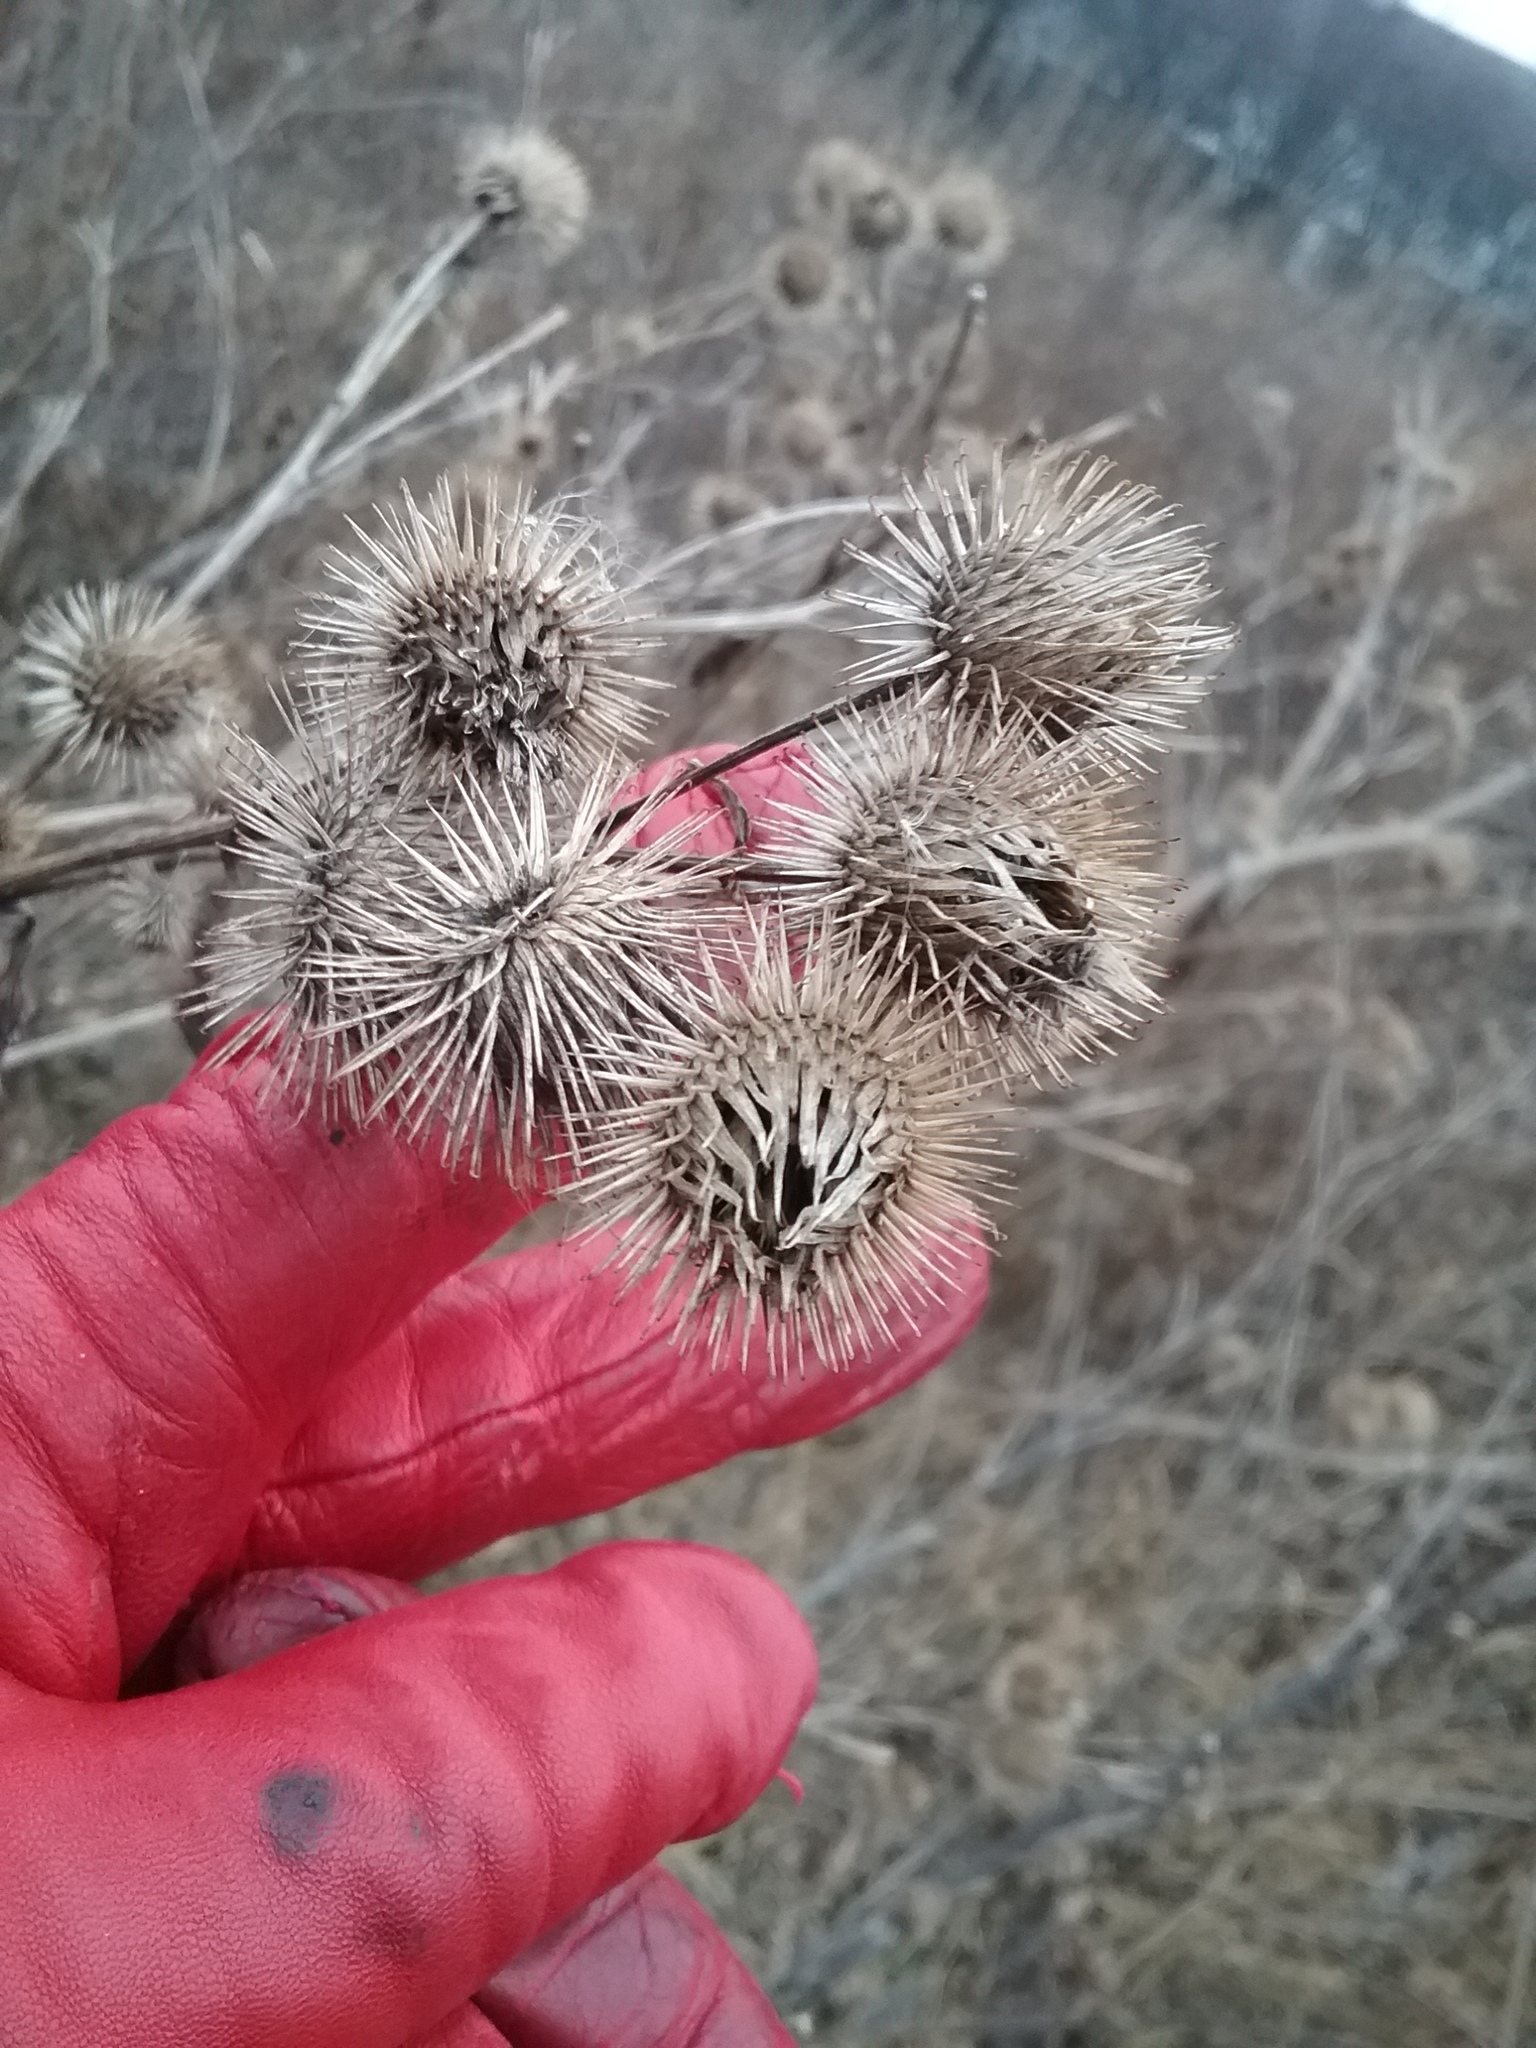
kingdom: Plantae
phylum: Tracheophyta
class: Magnoliopsida
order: Asterales
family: Asteraceae
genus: Arctium
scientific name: Arctium minus
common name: Lesser burdock
